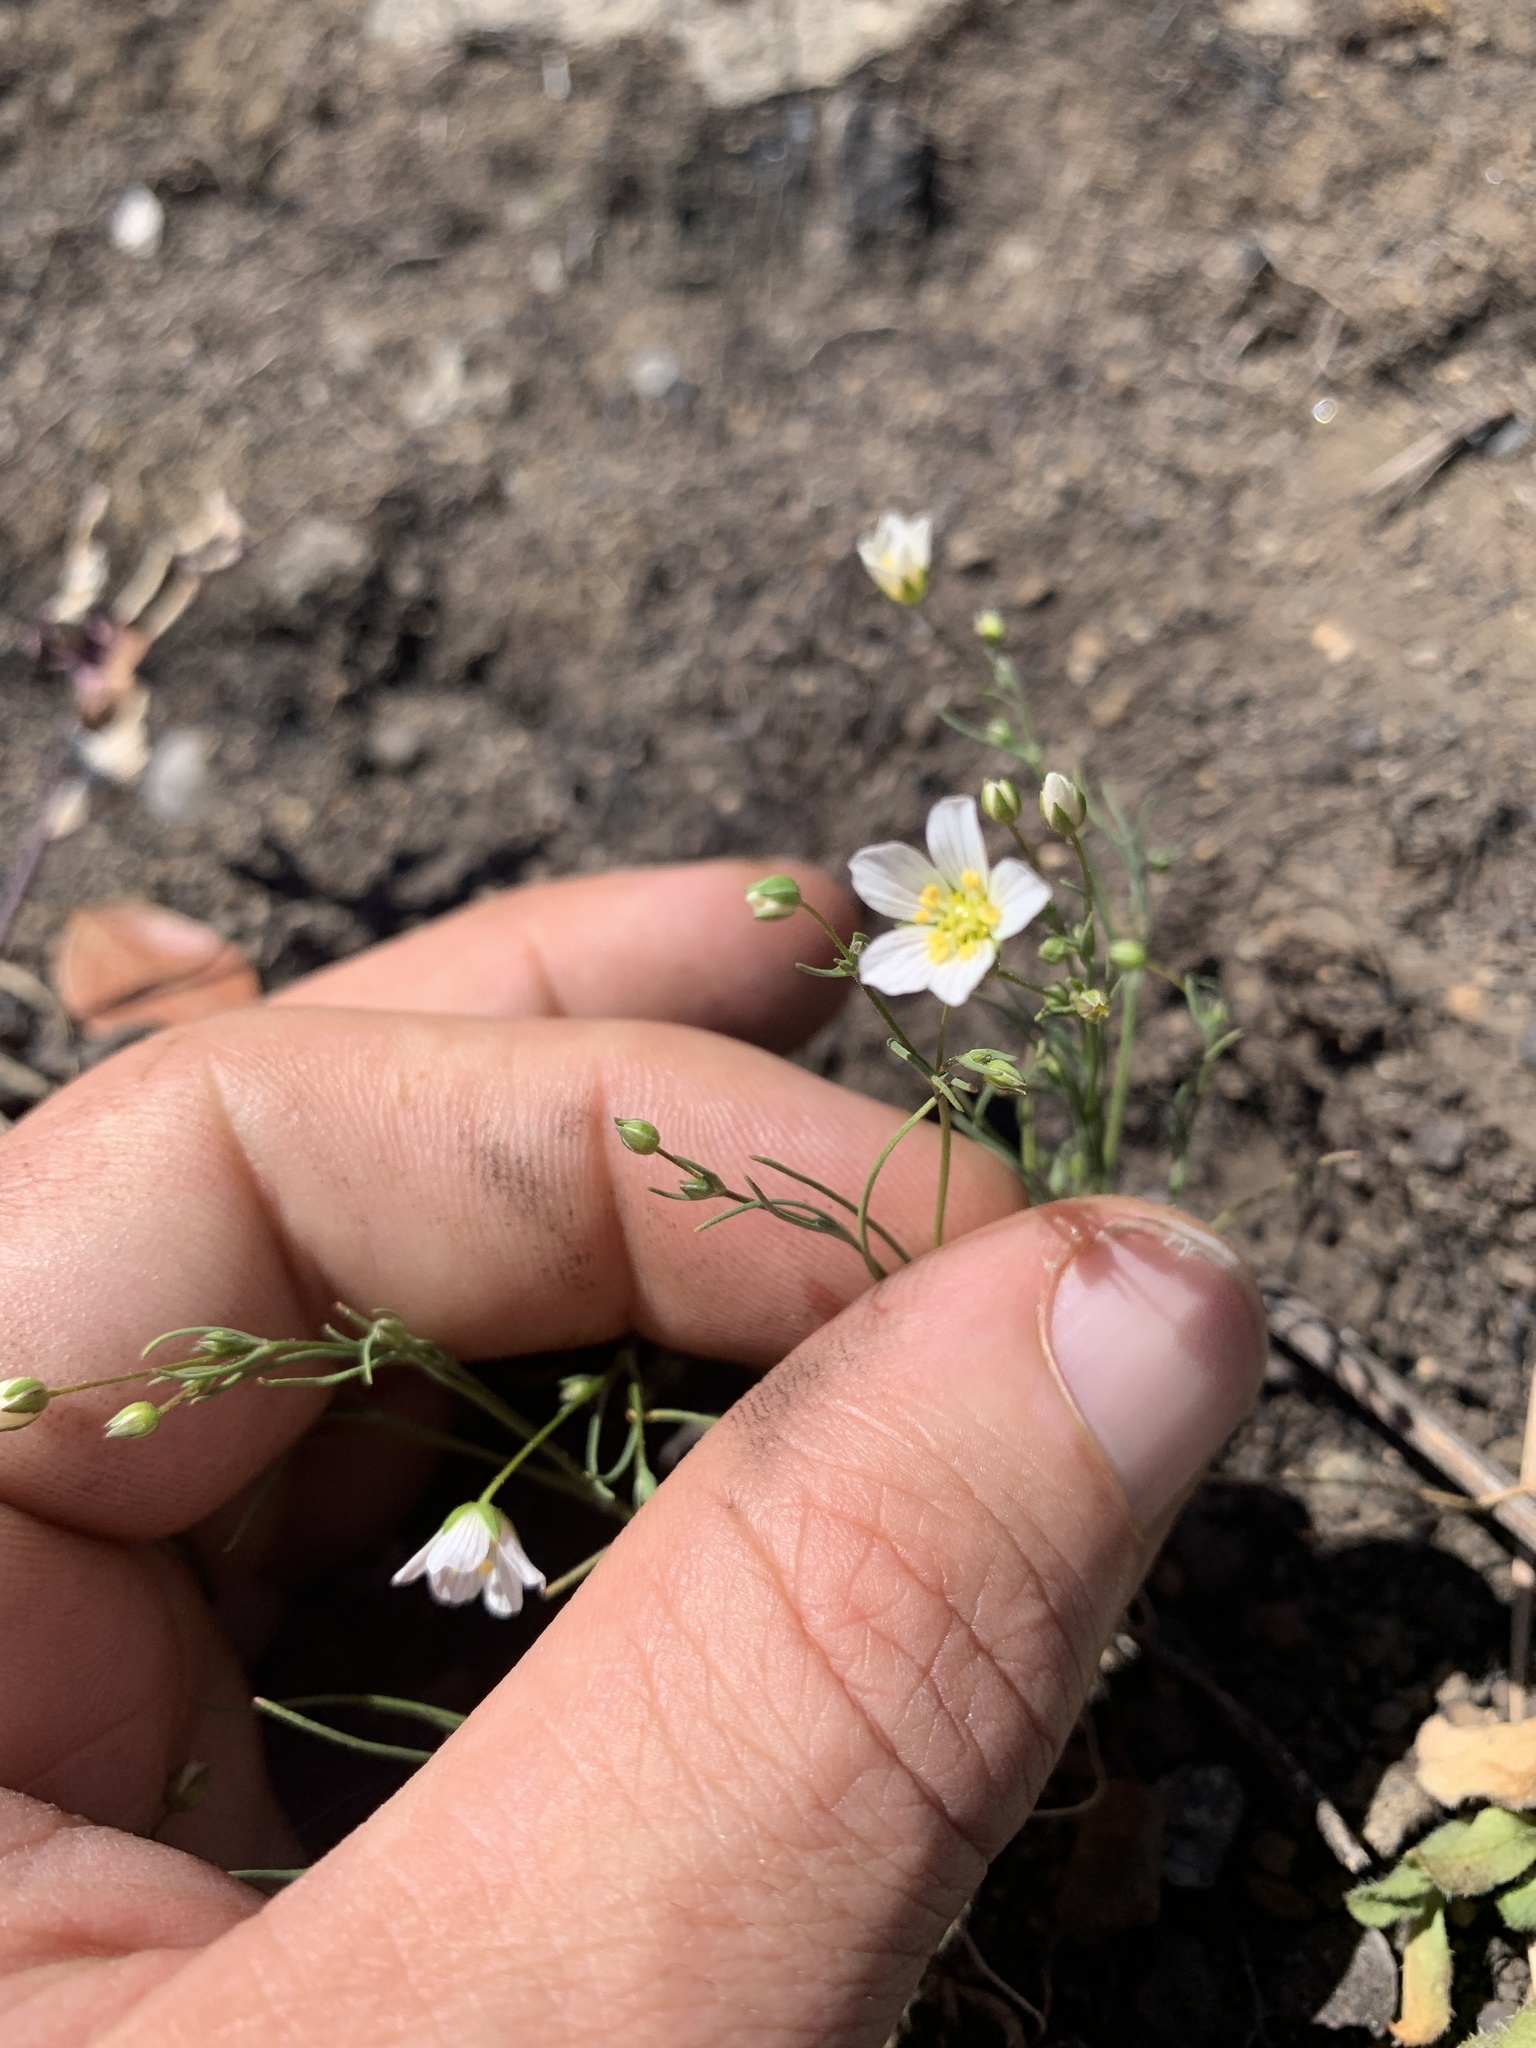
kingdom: Plantae
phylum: Tracheophyta
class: Magnoliopsida
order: Caryophyllales
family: Caryophyllaceae
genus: Sabulina
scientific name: Sabulina douglasii
